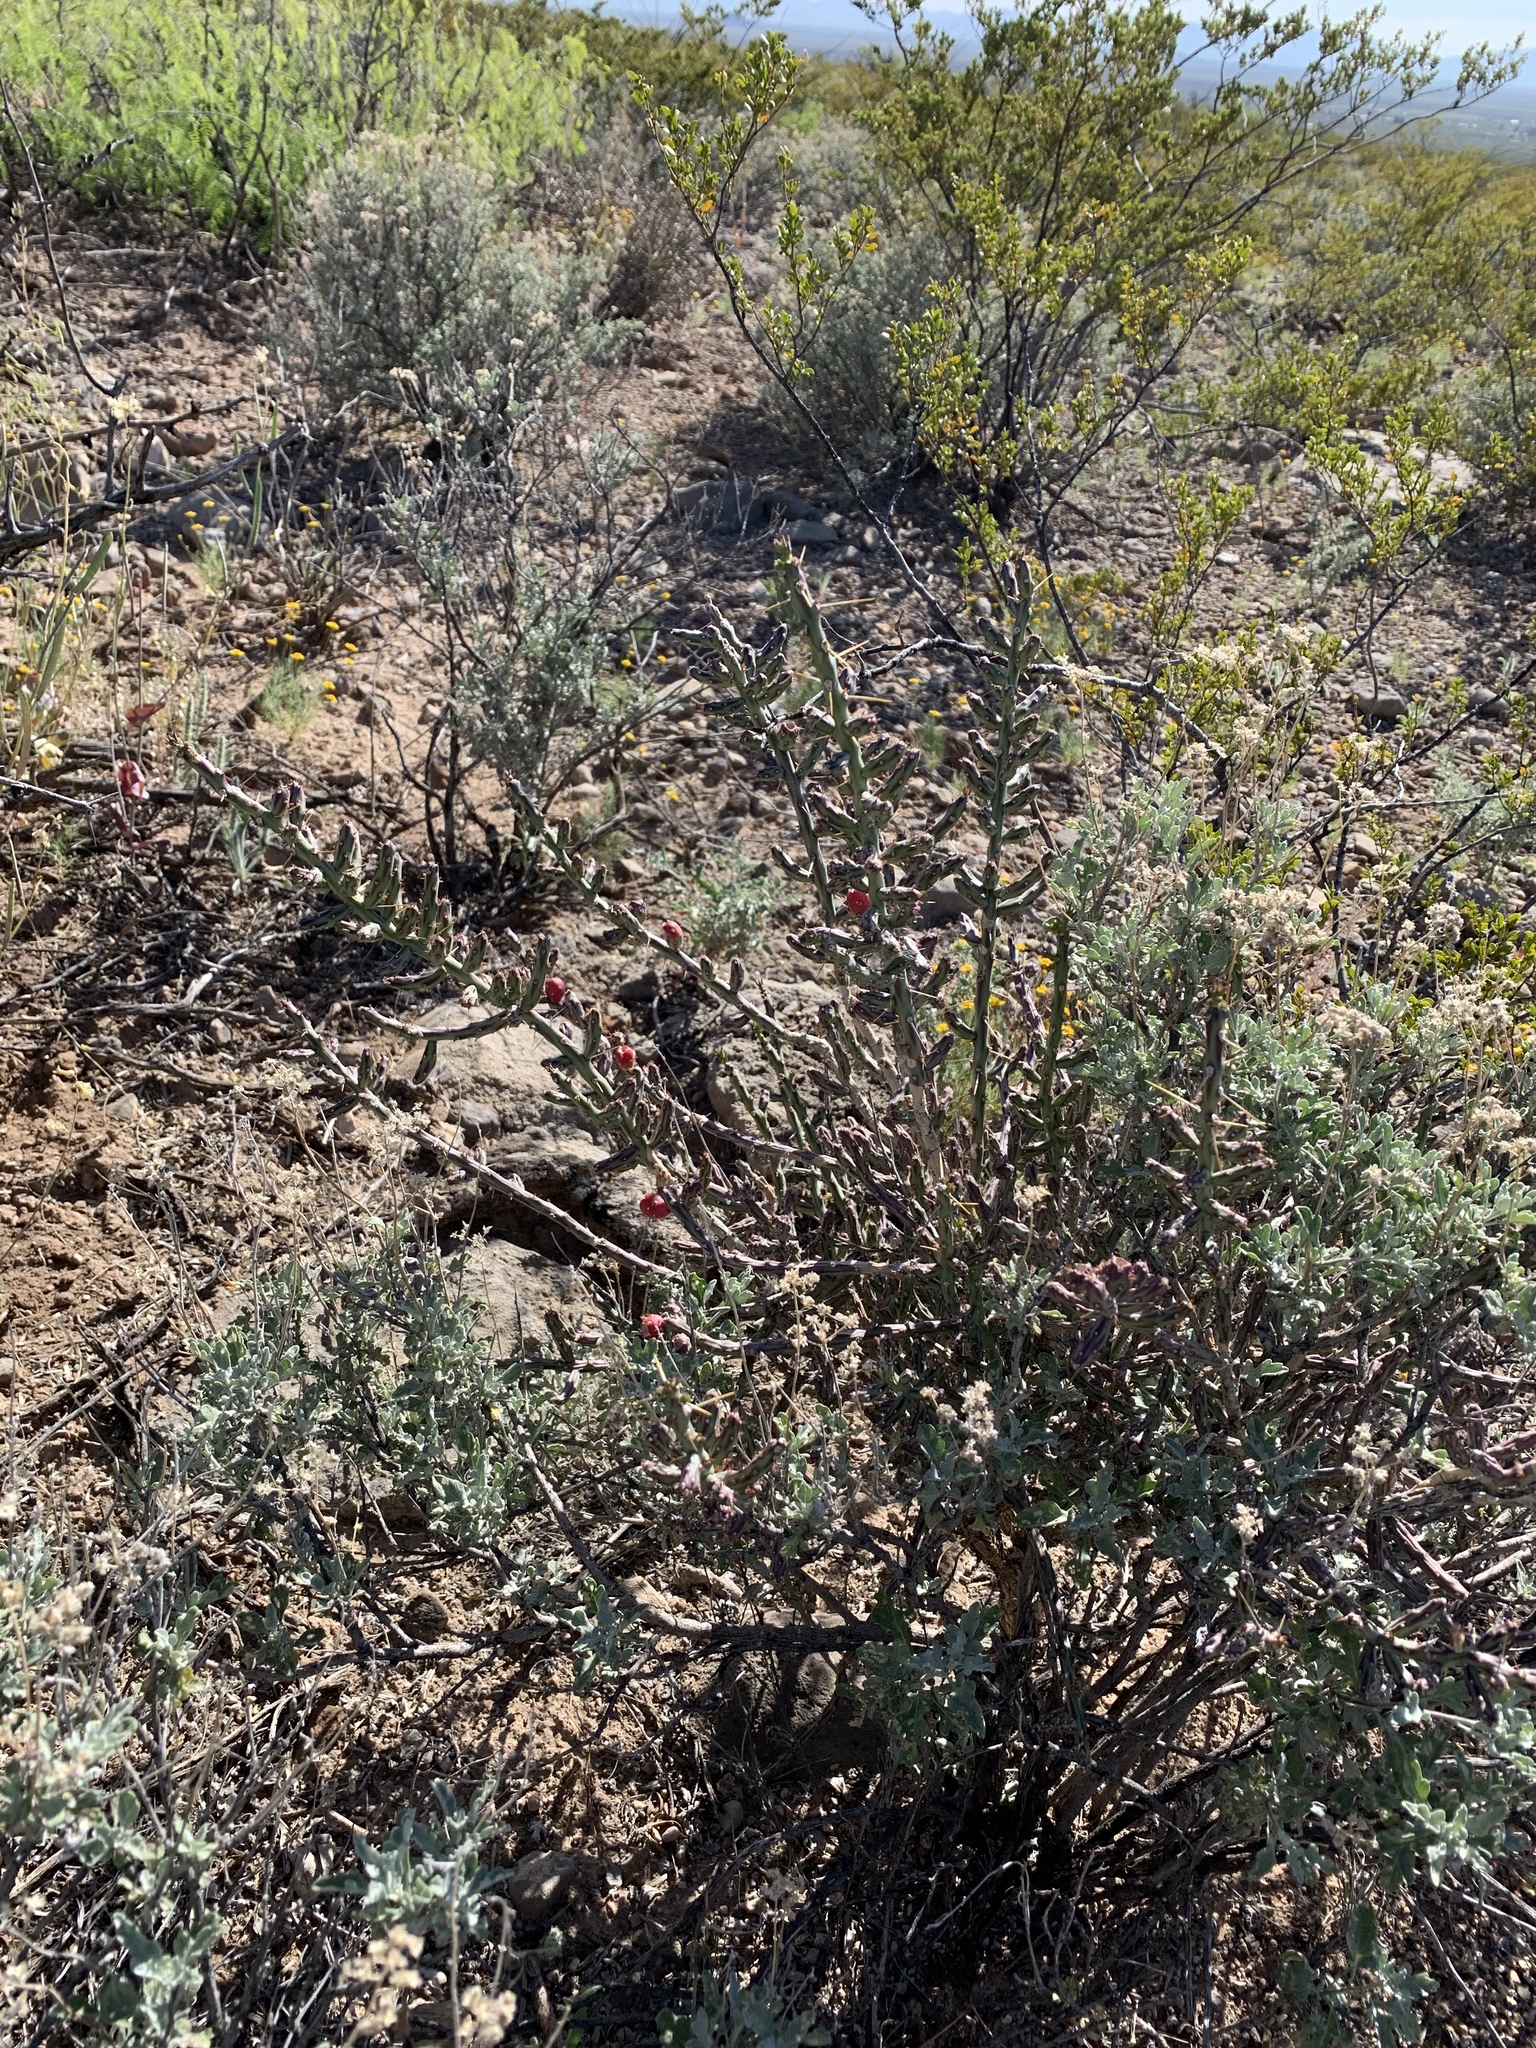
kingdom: Plantae
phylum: Tracheophyta
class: Magnoliopsida
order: Caryophyllales
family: Cactaceae
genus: Cylindropuntia
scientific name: Cylindropuntia leptocaulis
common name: Christmas cactus
